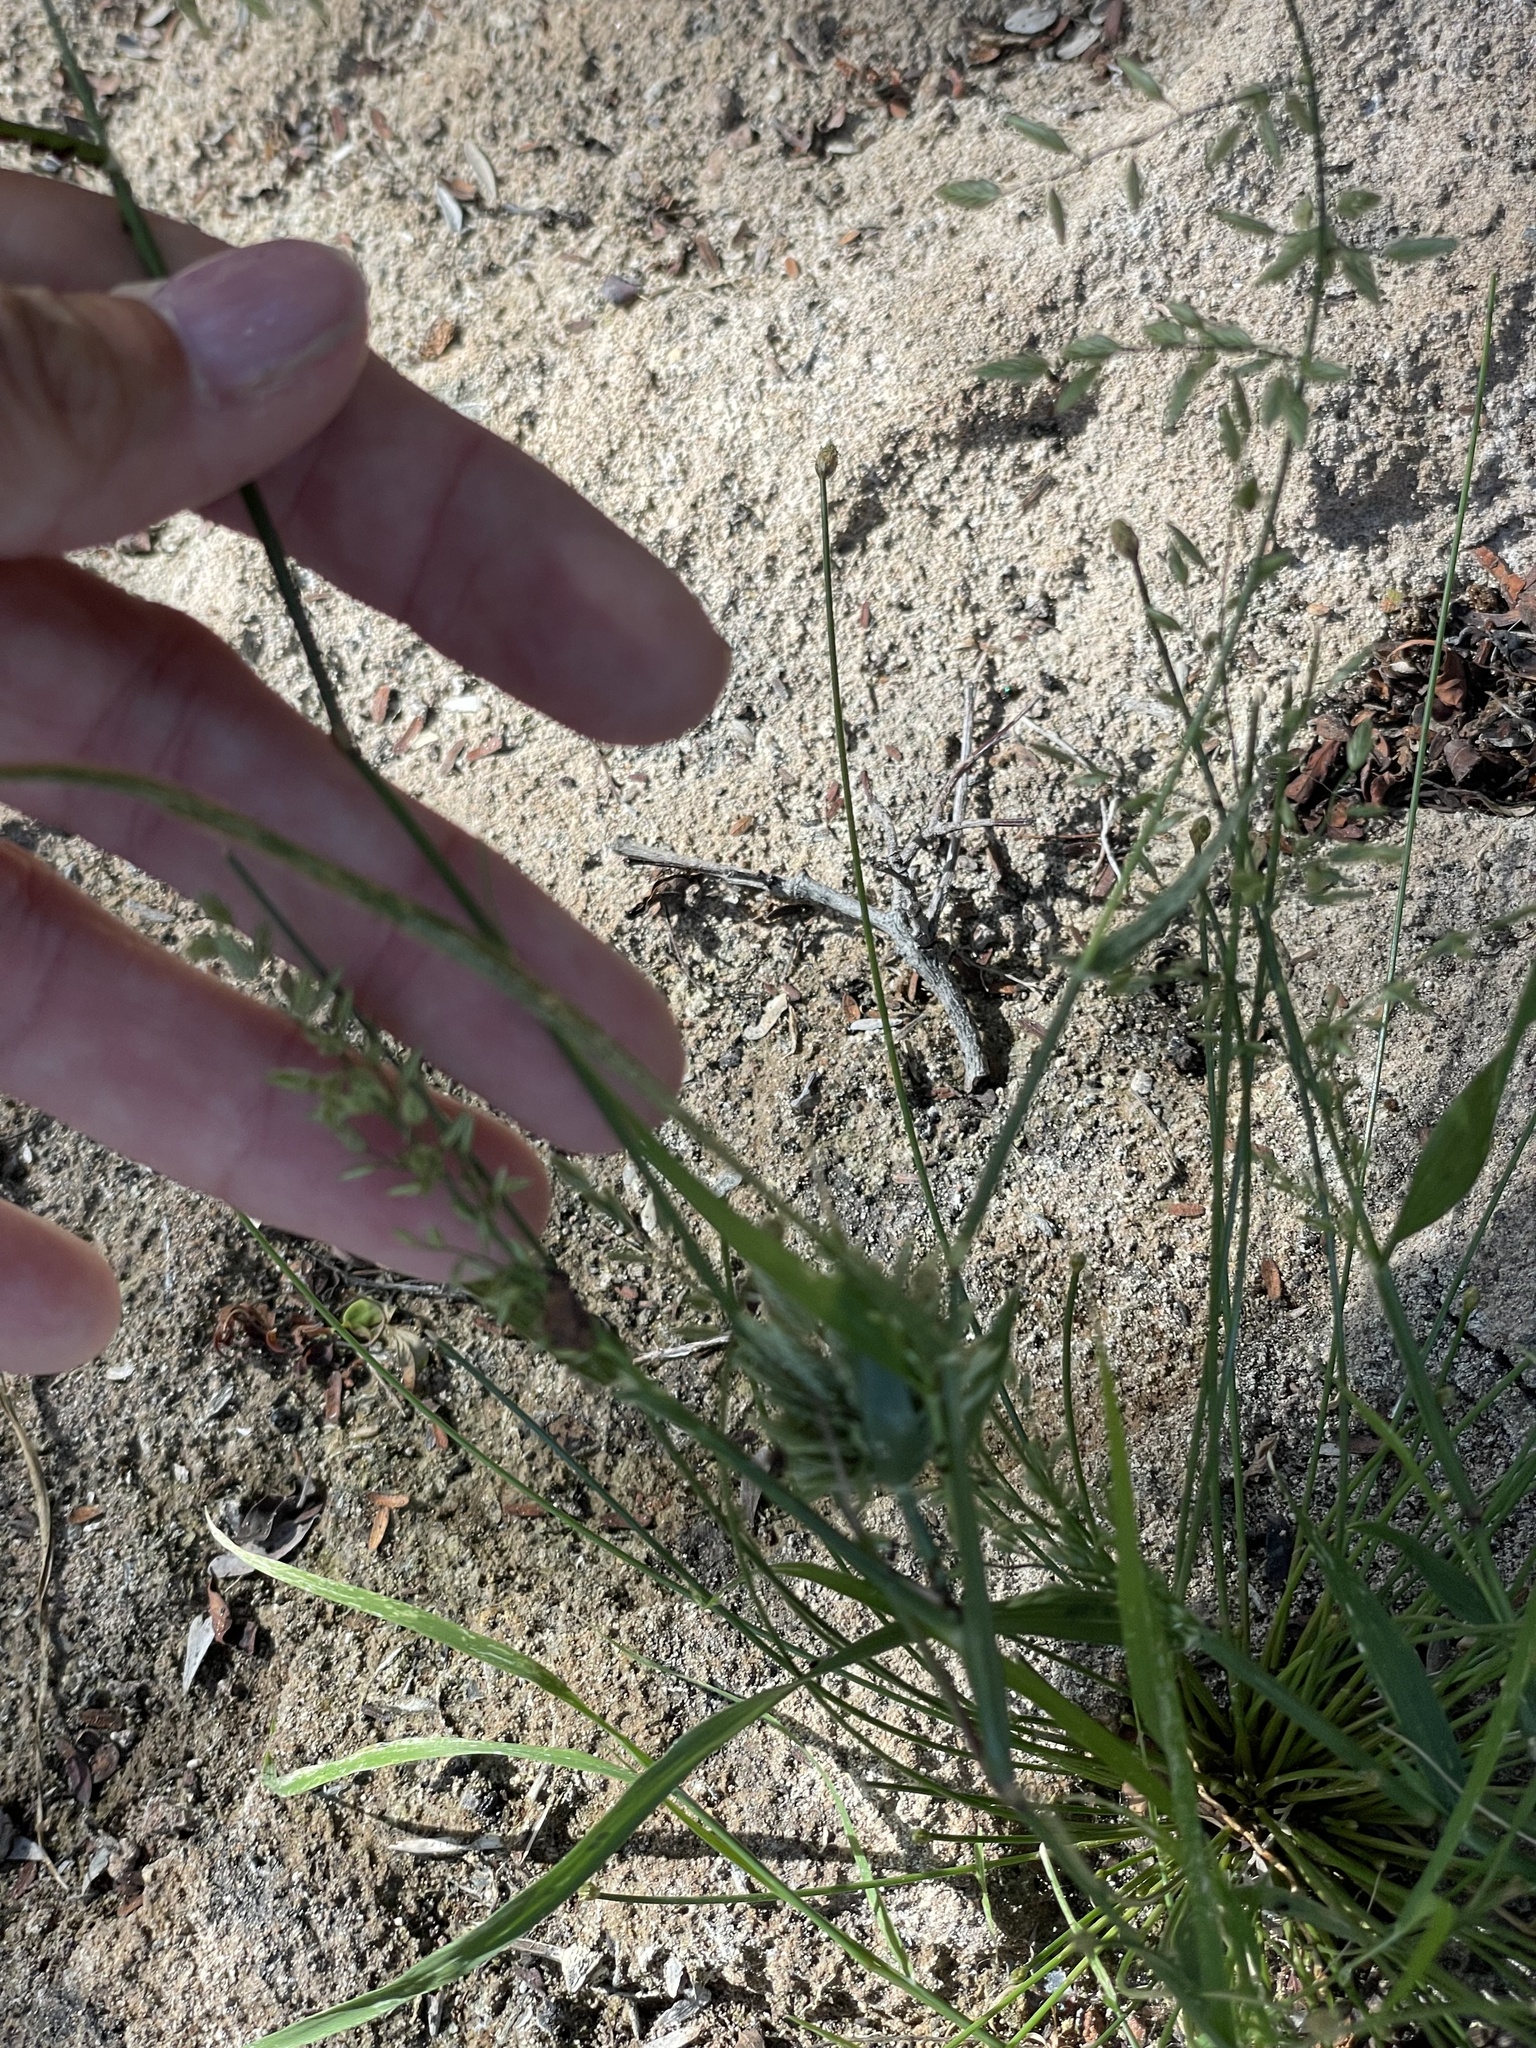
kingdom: Plantae
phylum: Tracheophyta
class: Liliopsida
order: Poales
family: Poaceae
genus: Eragrostis
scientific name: Eragrostis cilianensis
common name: Stinkgrass
